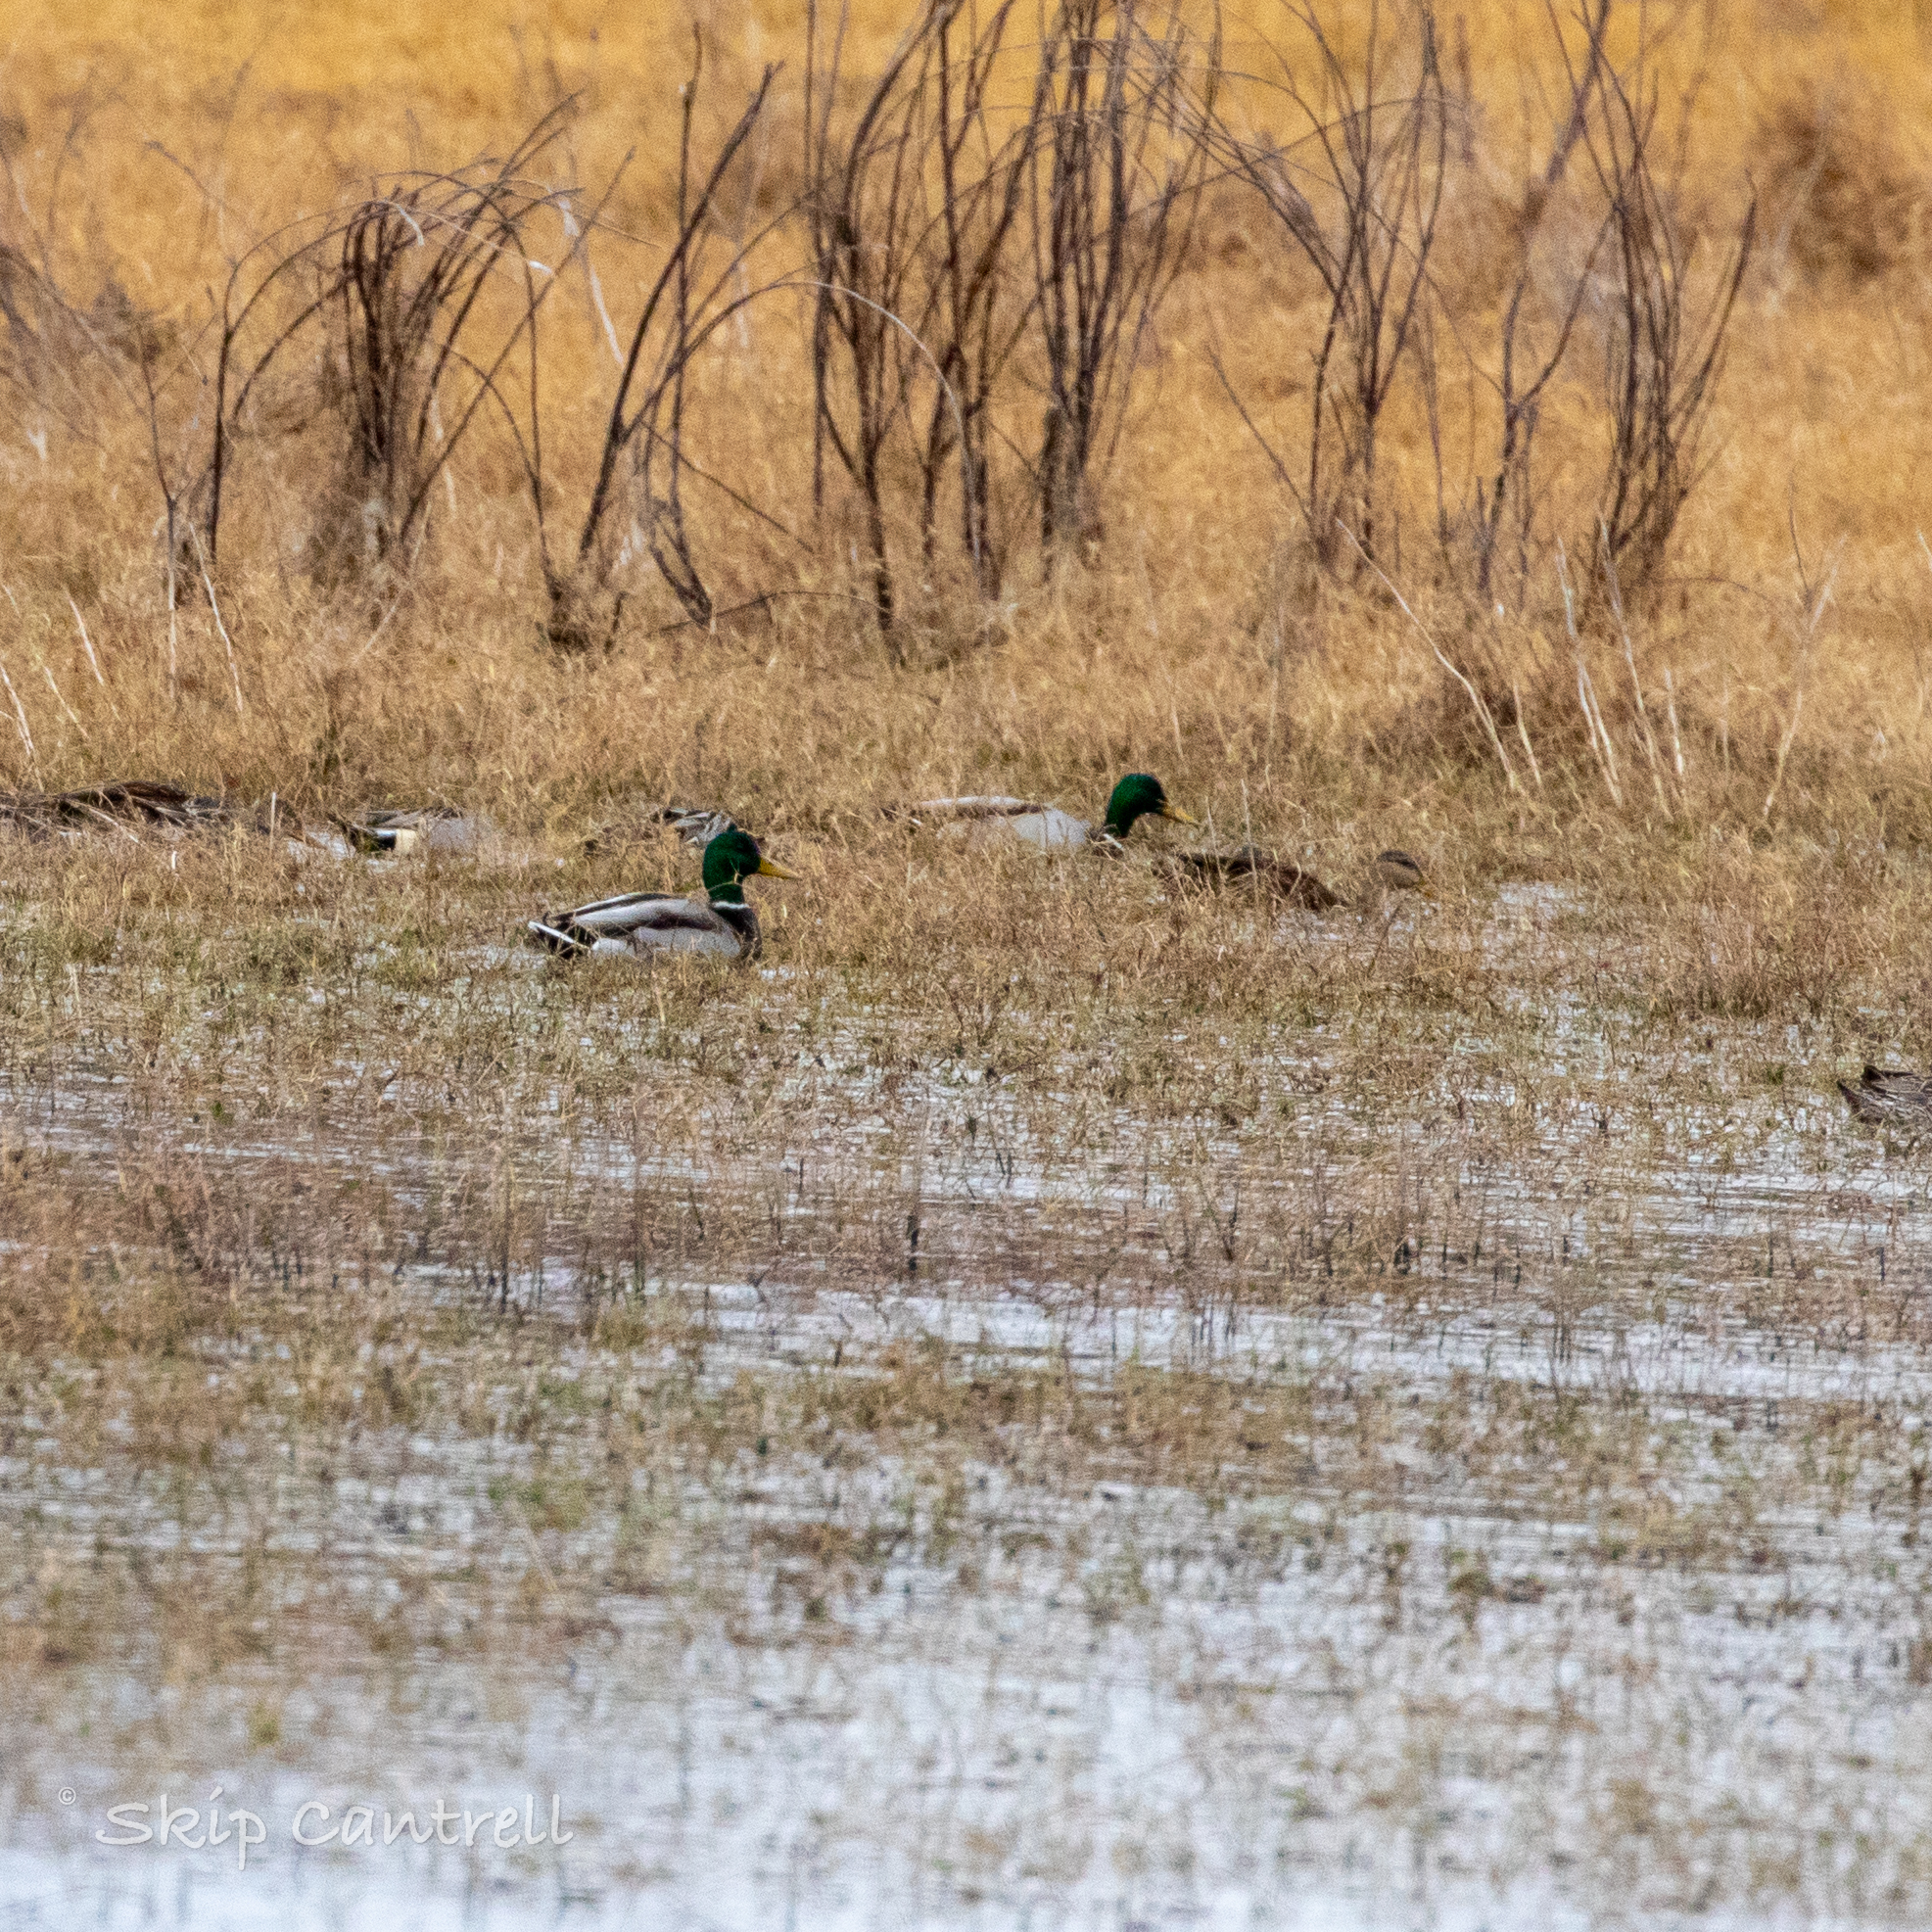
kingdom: Animalia
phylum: Chordata
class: Aves
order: Anseriformes
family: Anatidae
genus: Anas
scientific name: Anas platyrhynchos
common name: Mallard
